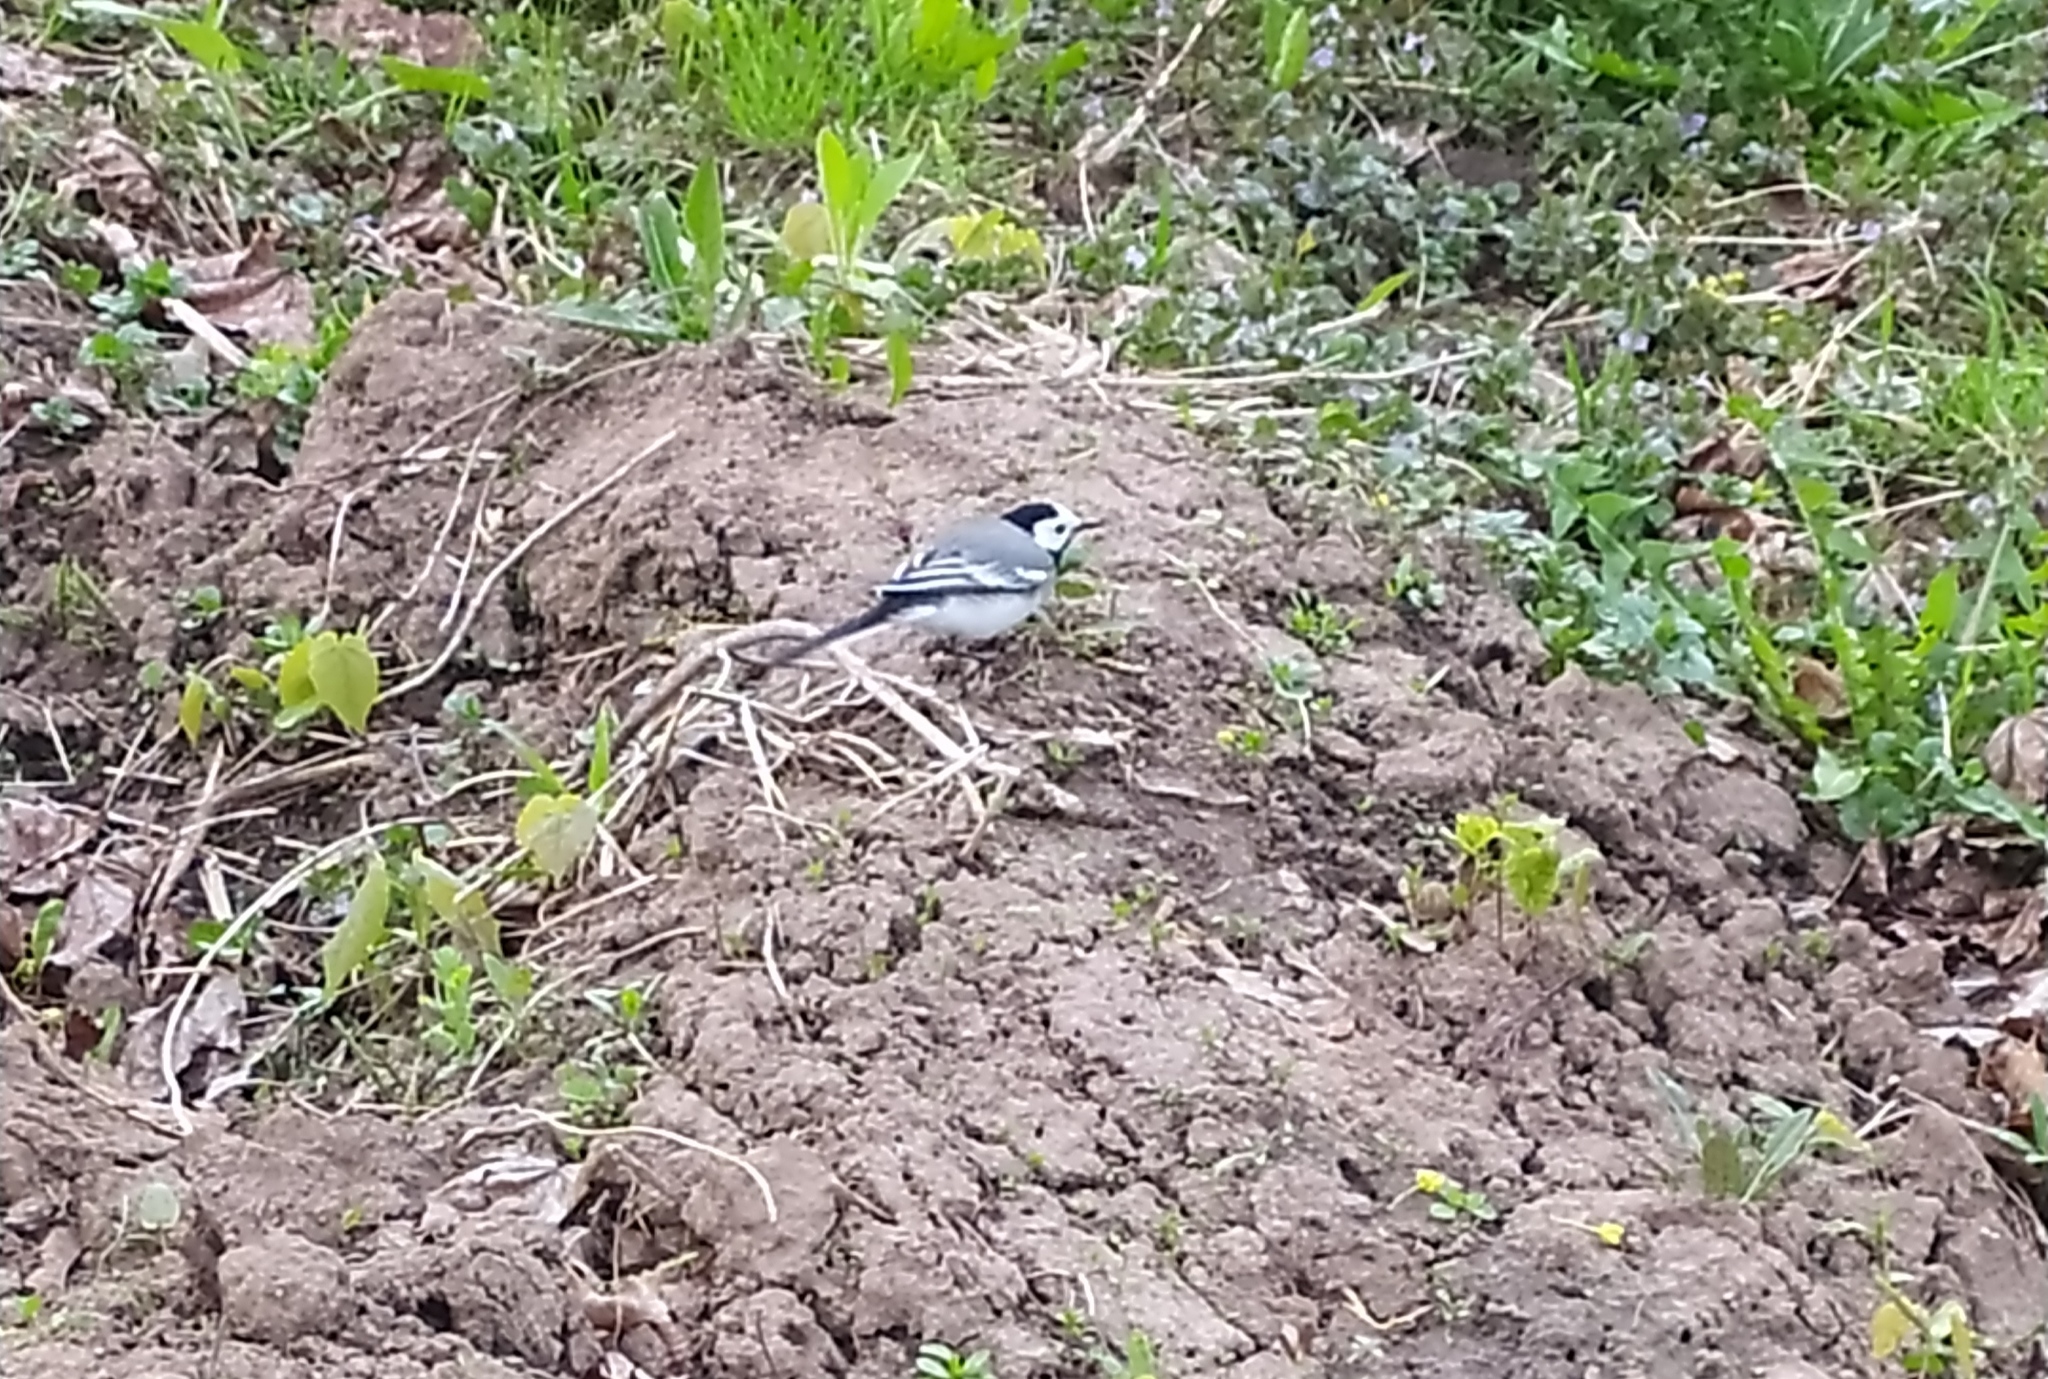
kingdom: Animalia
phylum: Chordata
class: Aves
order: Passeriformes
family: Motacillidae
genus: Motacilla
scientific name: Motacilla alba
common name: White wagtail
